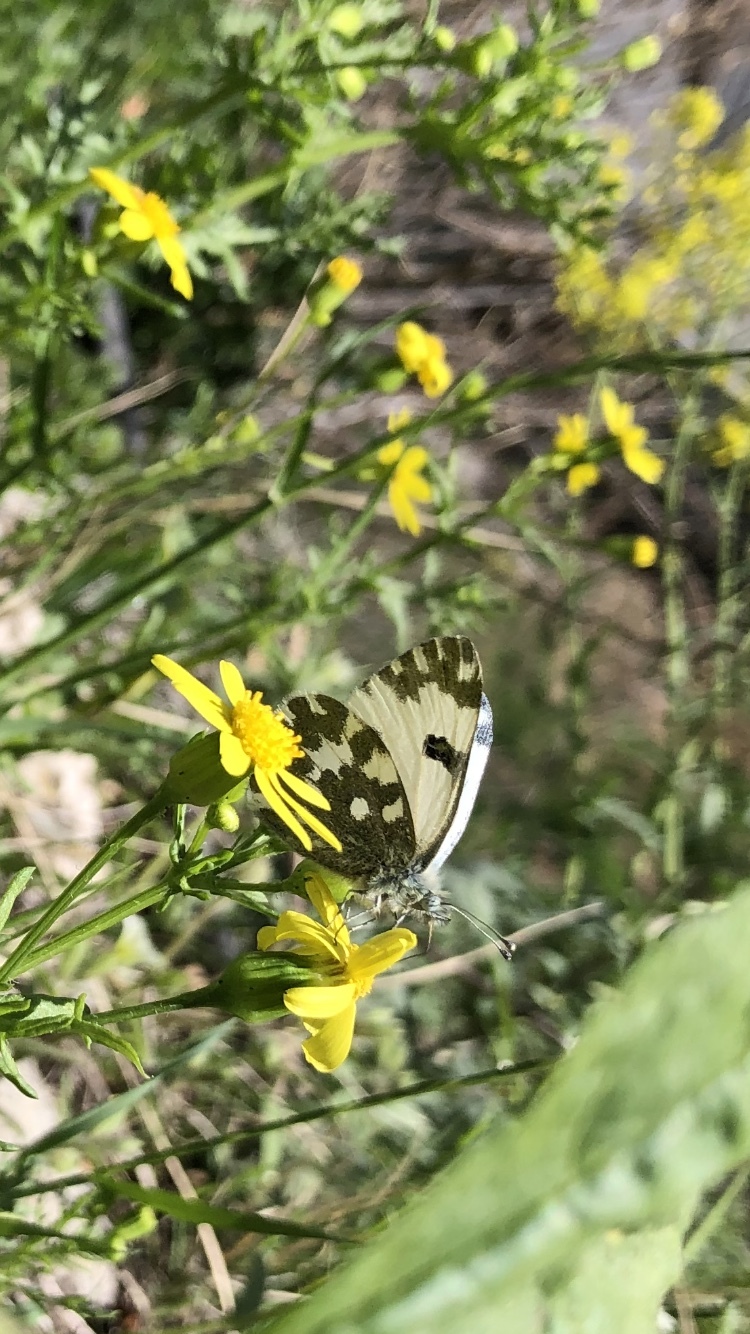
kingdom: Animalia
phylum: Arthropoda
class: Insecta
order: Lepidoptera
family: Pieridae
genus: Pontia
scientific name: Pontia edusa
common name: Eastern bath white
